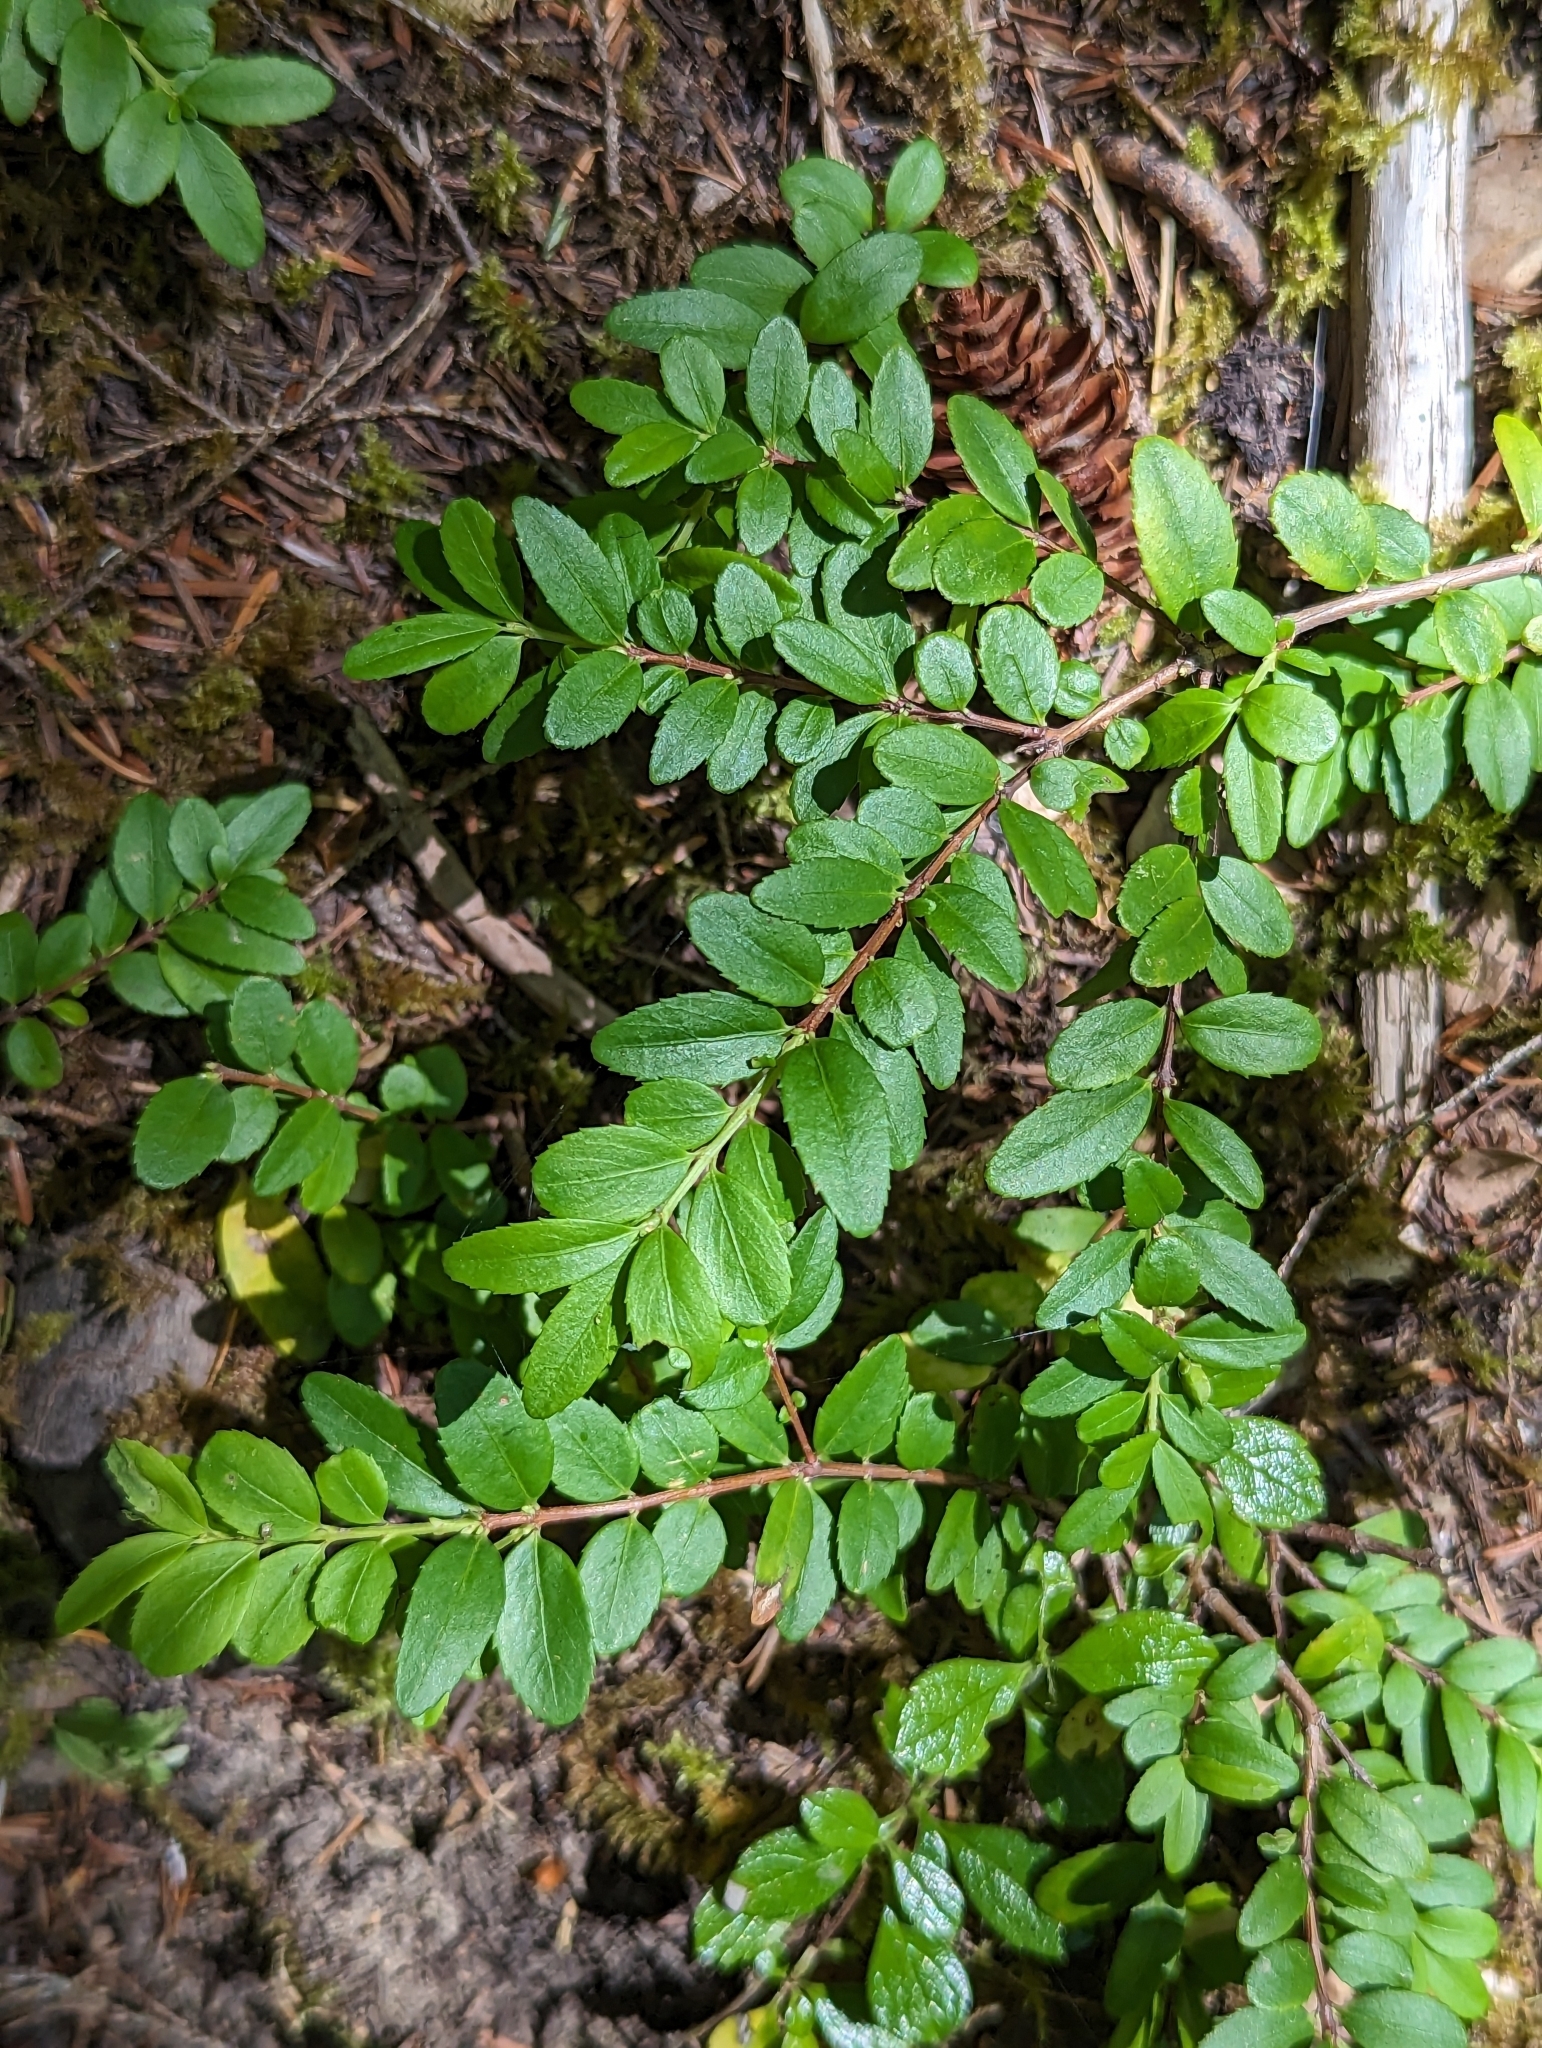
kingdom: Plantae
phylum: Tracheophyta
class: Magnoliopsida
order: Celastrales
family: Celastraceae
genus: Paxistima
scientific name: Paxistima myrsinites
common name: Mountain-lover
